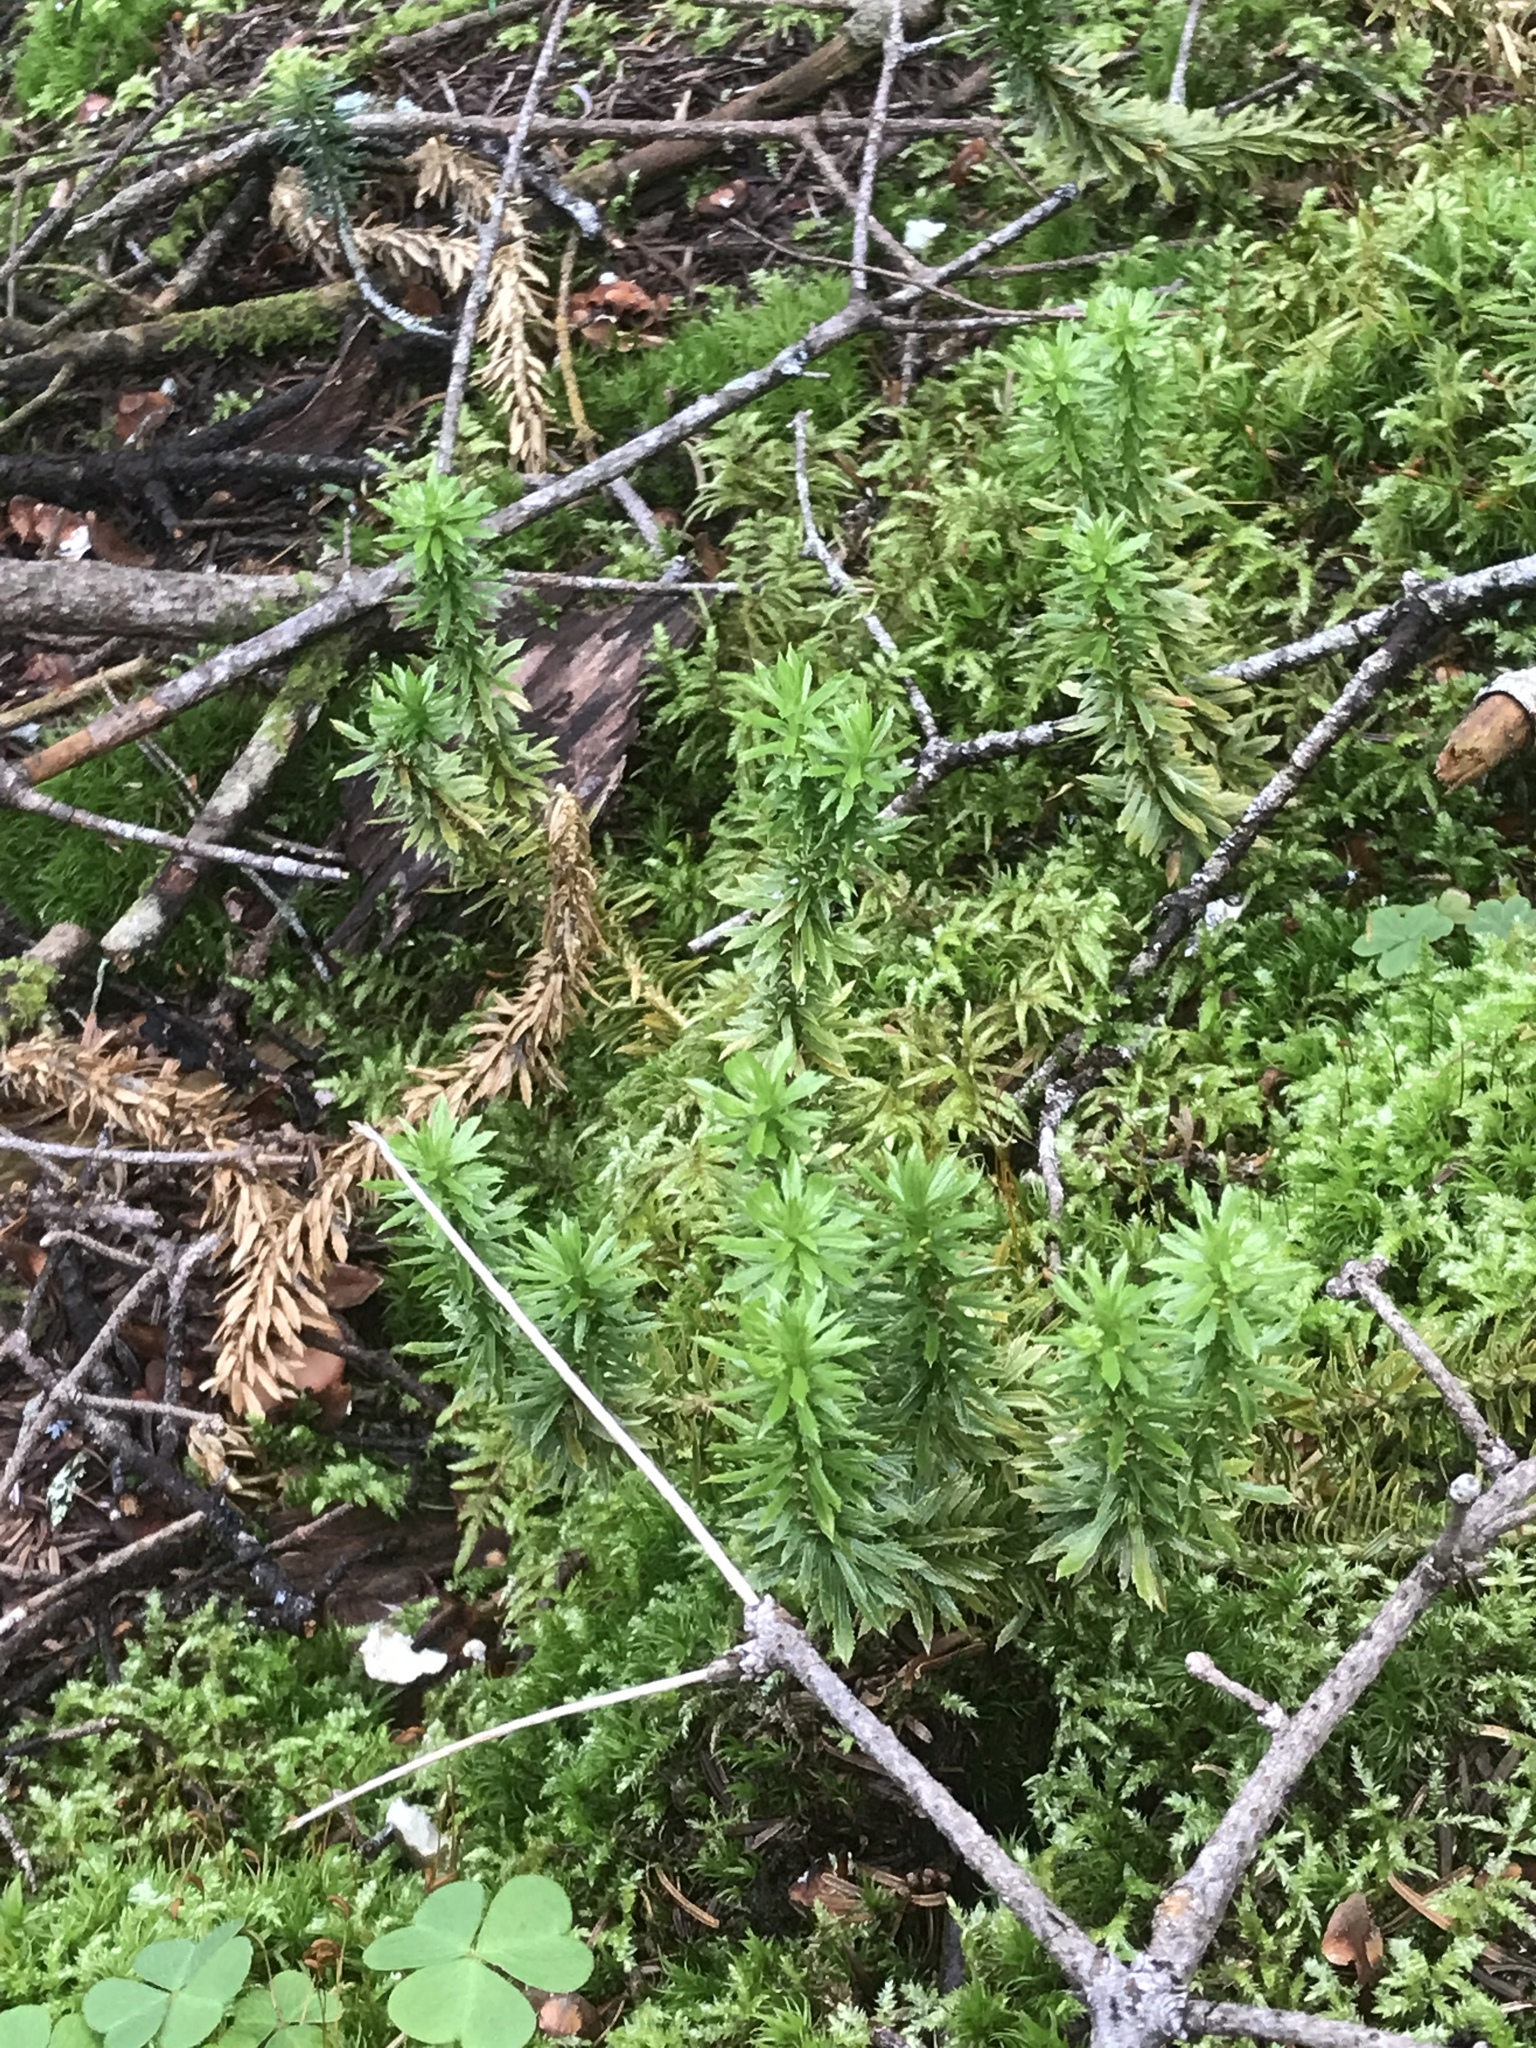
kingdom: Plantae
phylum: Tracheophyta
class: Lycopodiopsida
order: Lycopodiales
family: Lycopodiaceae
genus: Huperzia
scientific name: Huperzia lucidula
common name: Shining clubmoss
